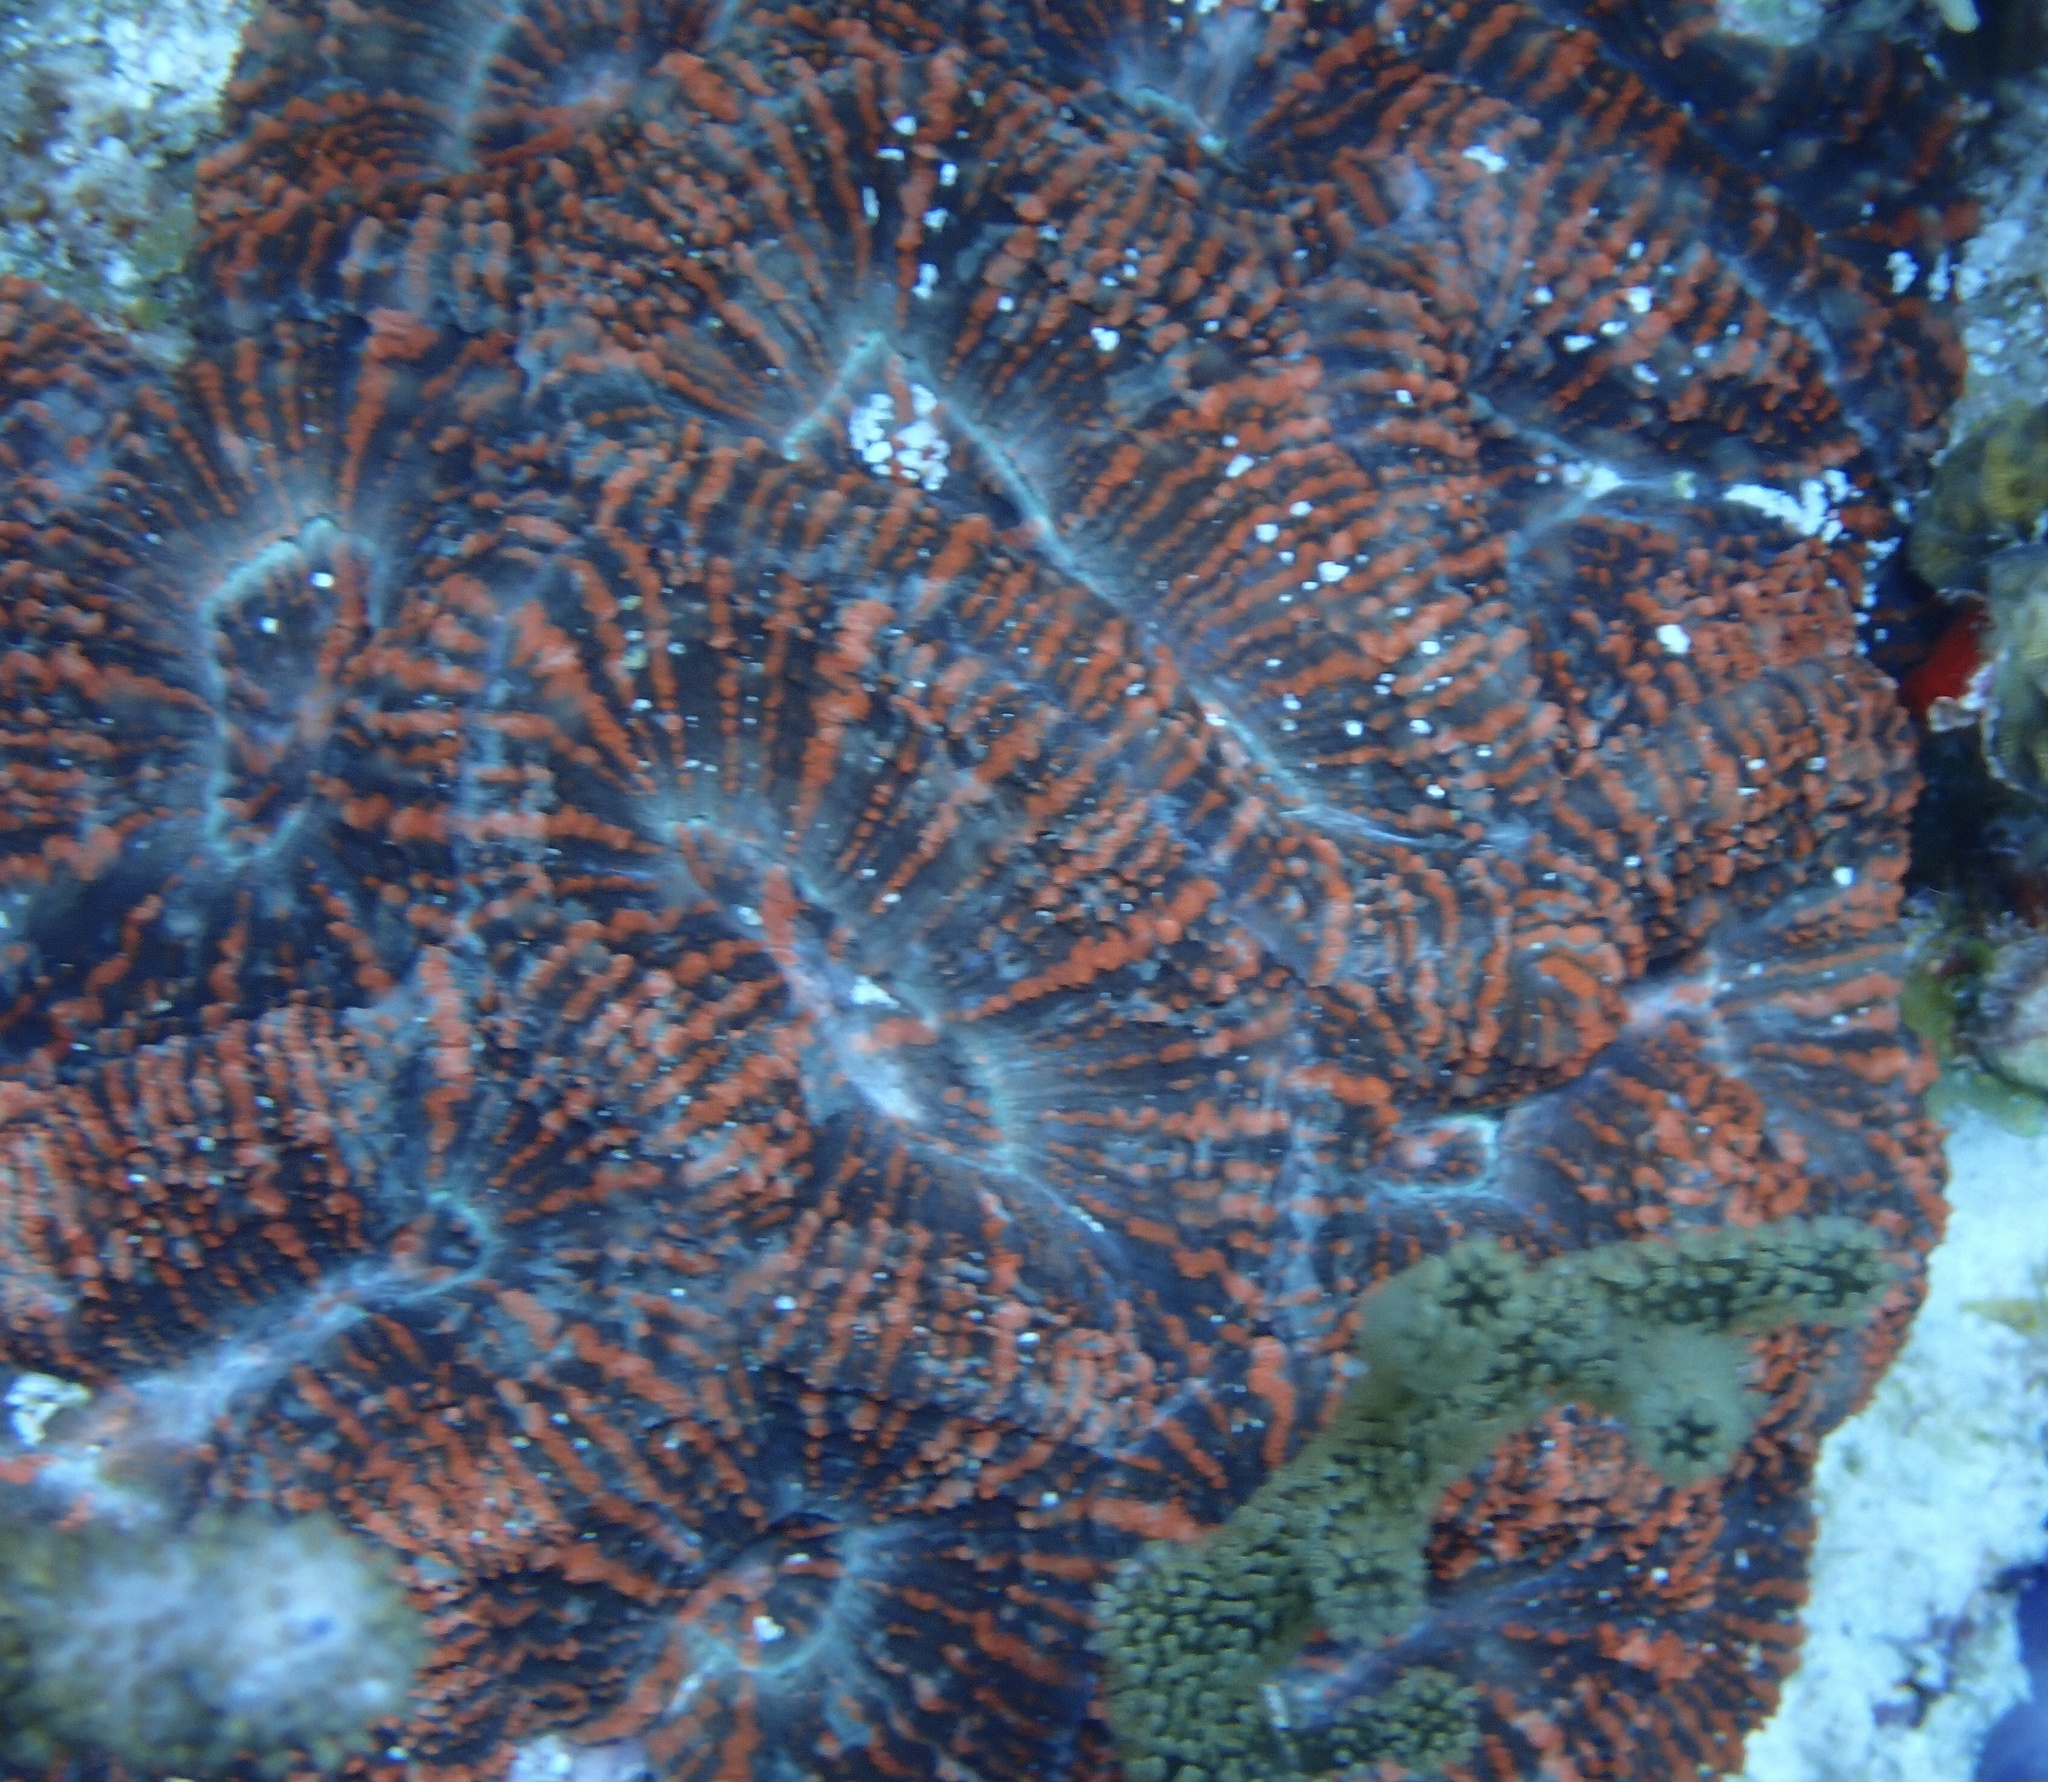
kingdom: Animalia
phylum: Cnidaria
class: Anthozoa
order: Scleractinia
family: Faviidae
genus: Mussa
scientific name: Mussa angulosa
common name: Spiny flower coral
